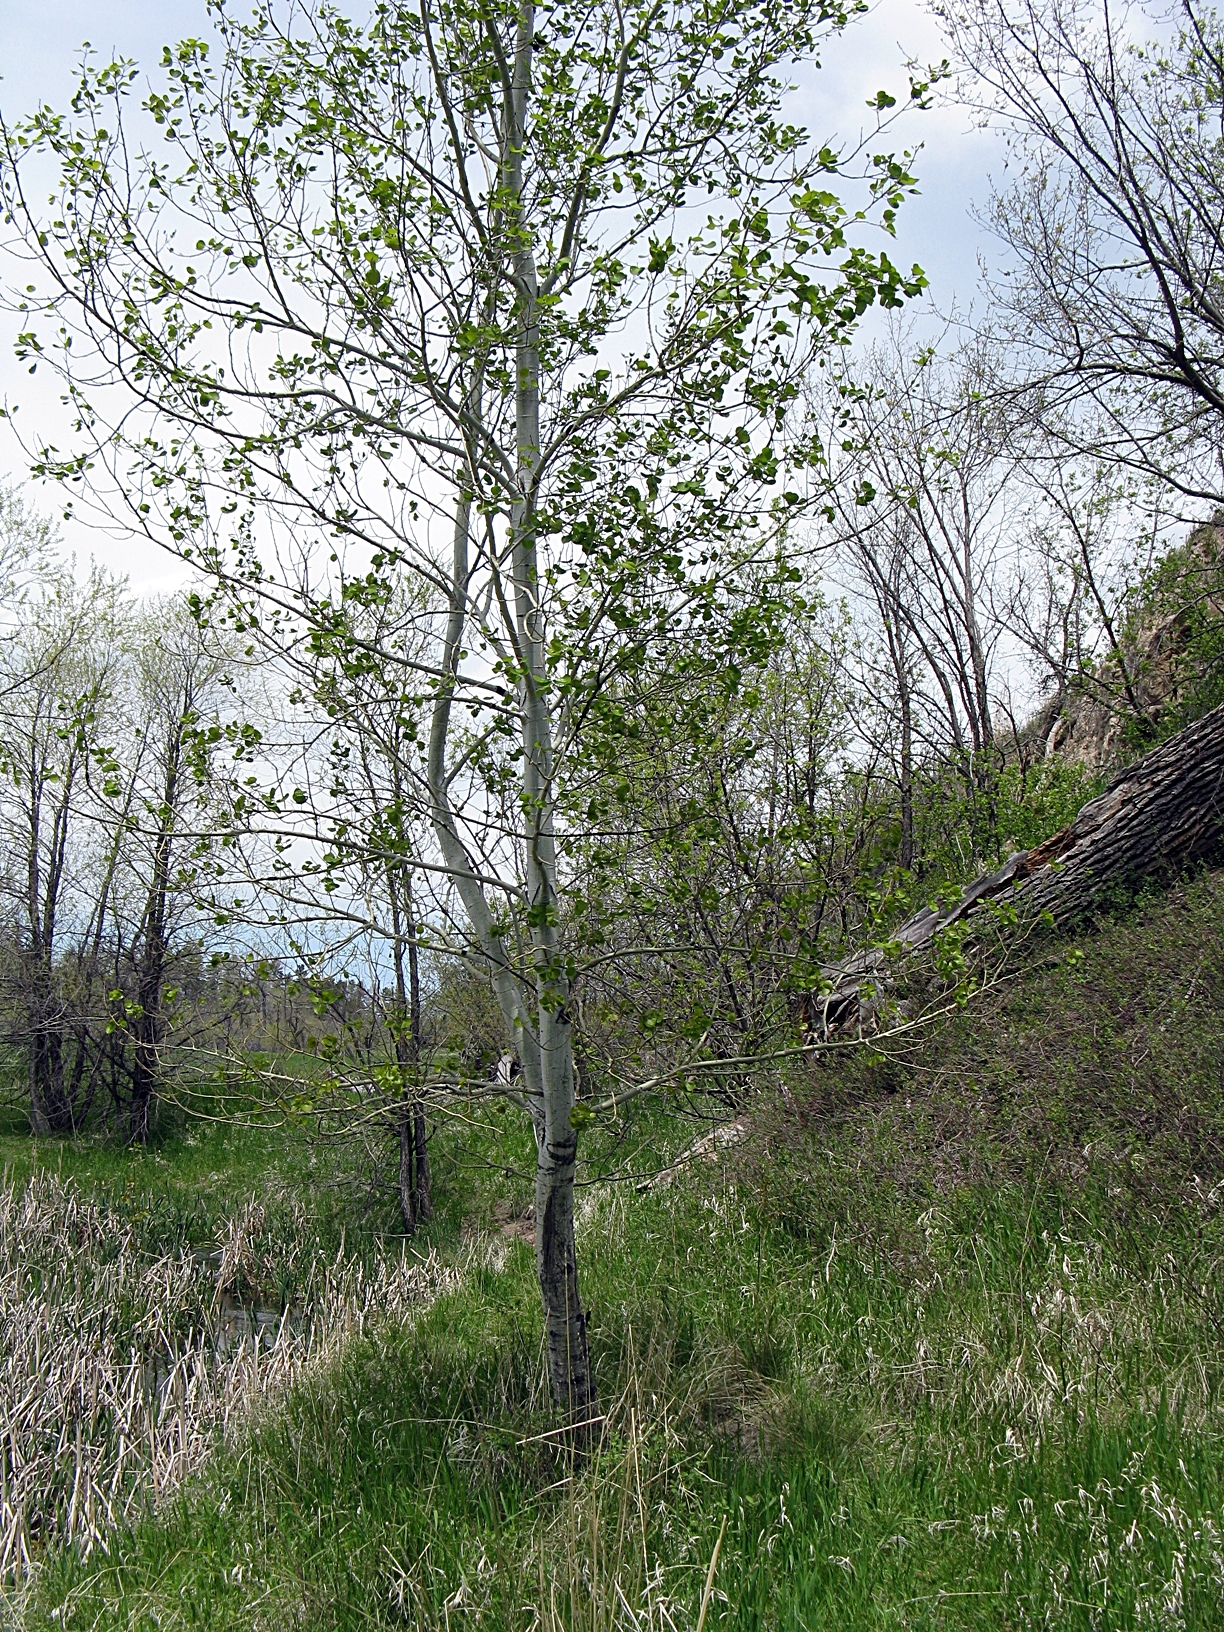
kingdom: Plantae
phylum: Tracheophyta
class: Magnoliopsida
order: Malpighiales
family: Salicaceae
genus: Populus
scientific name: Populus tremuloides
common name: Quaking aspen
